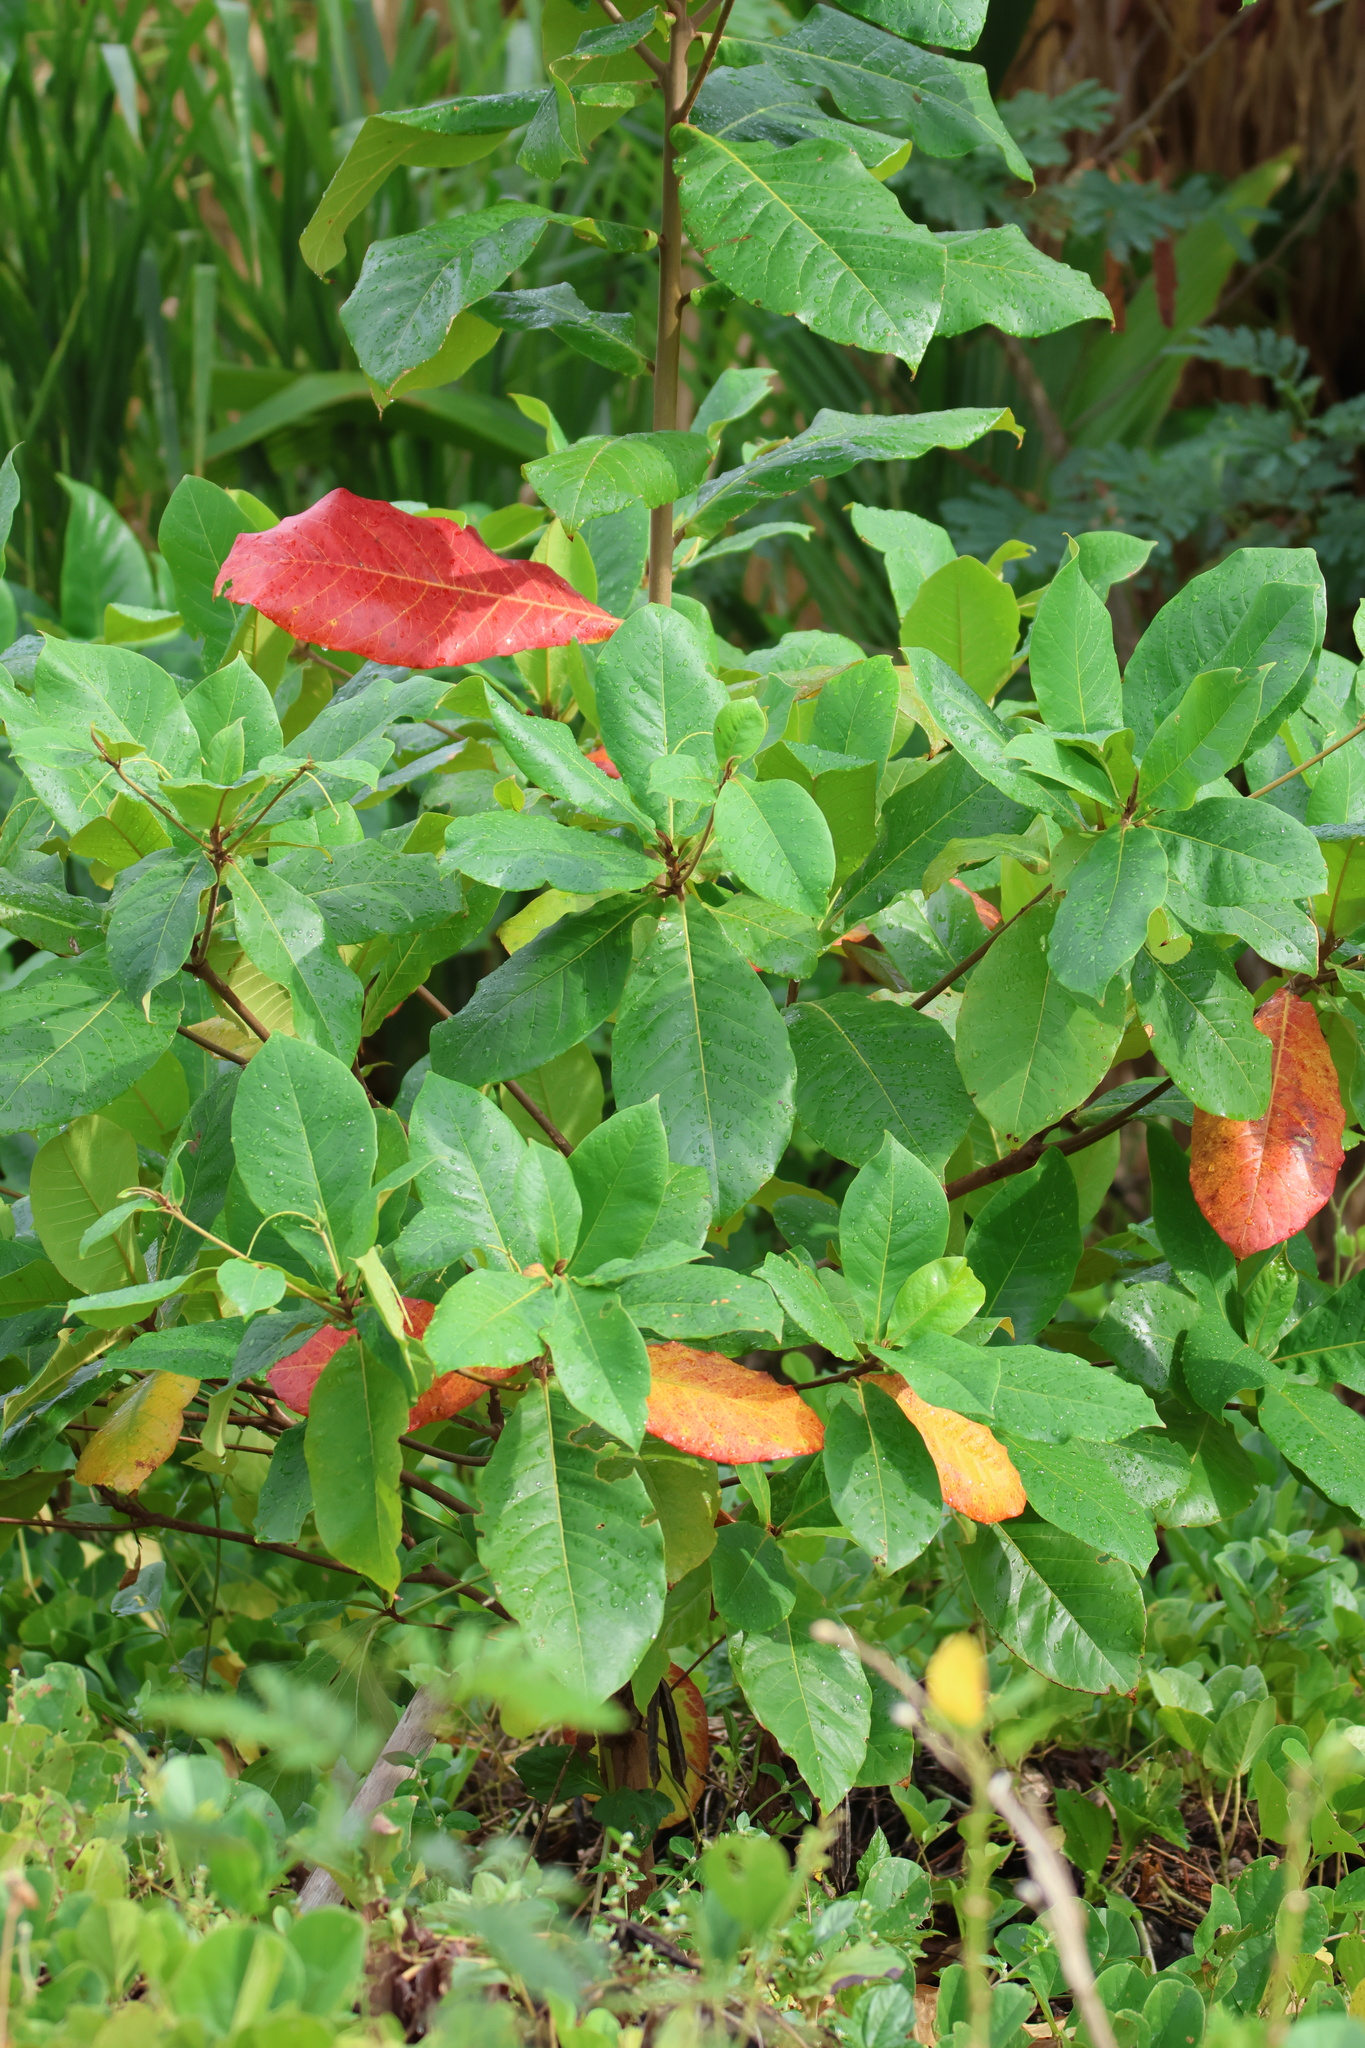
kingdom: Plantae
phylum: Tracheophyta
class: Magnoliopsida
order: Myrtales
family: Combretaceae
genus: Terminalia
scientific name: Terminalia catappa
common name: Tropical almond
